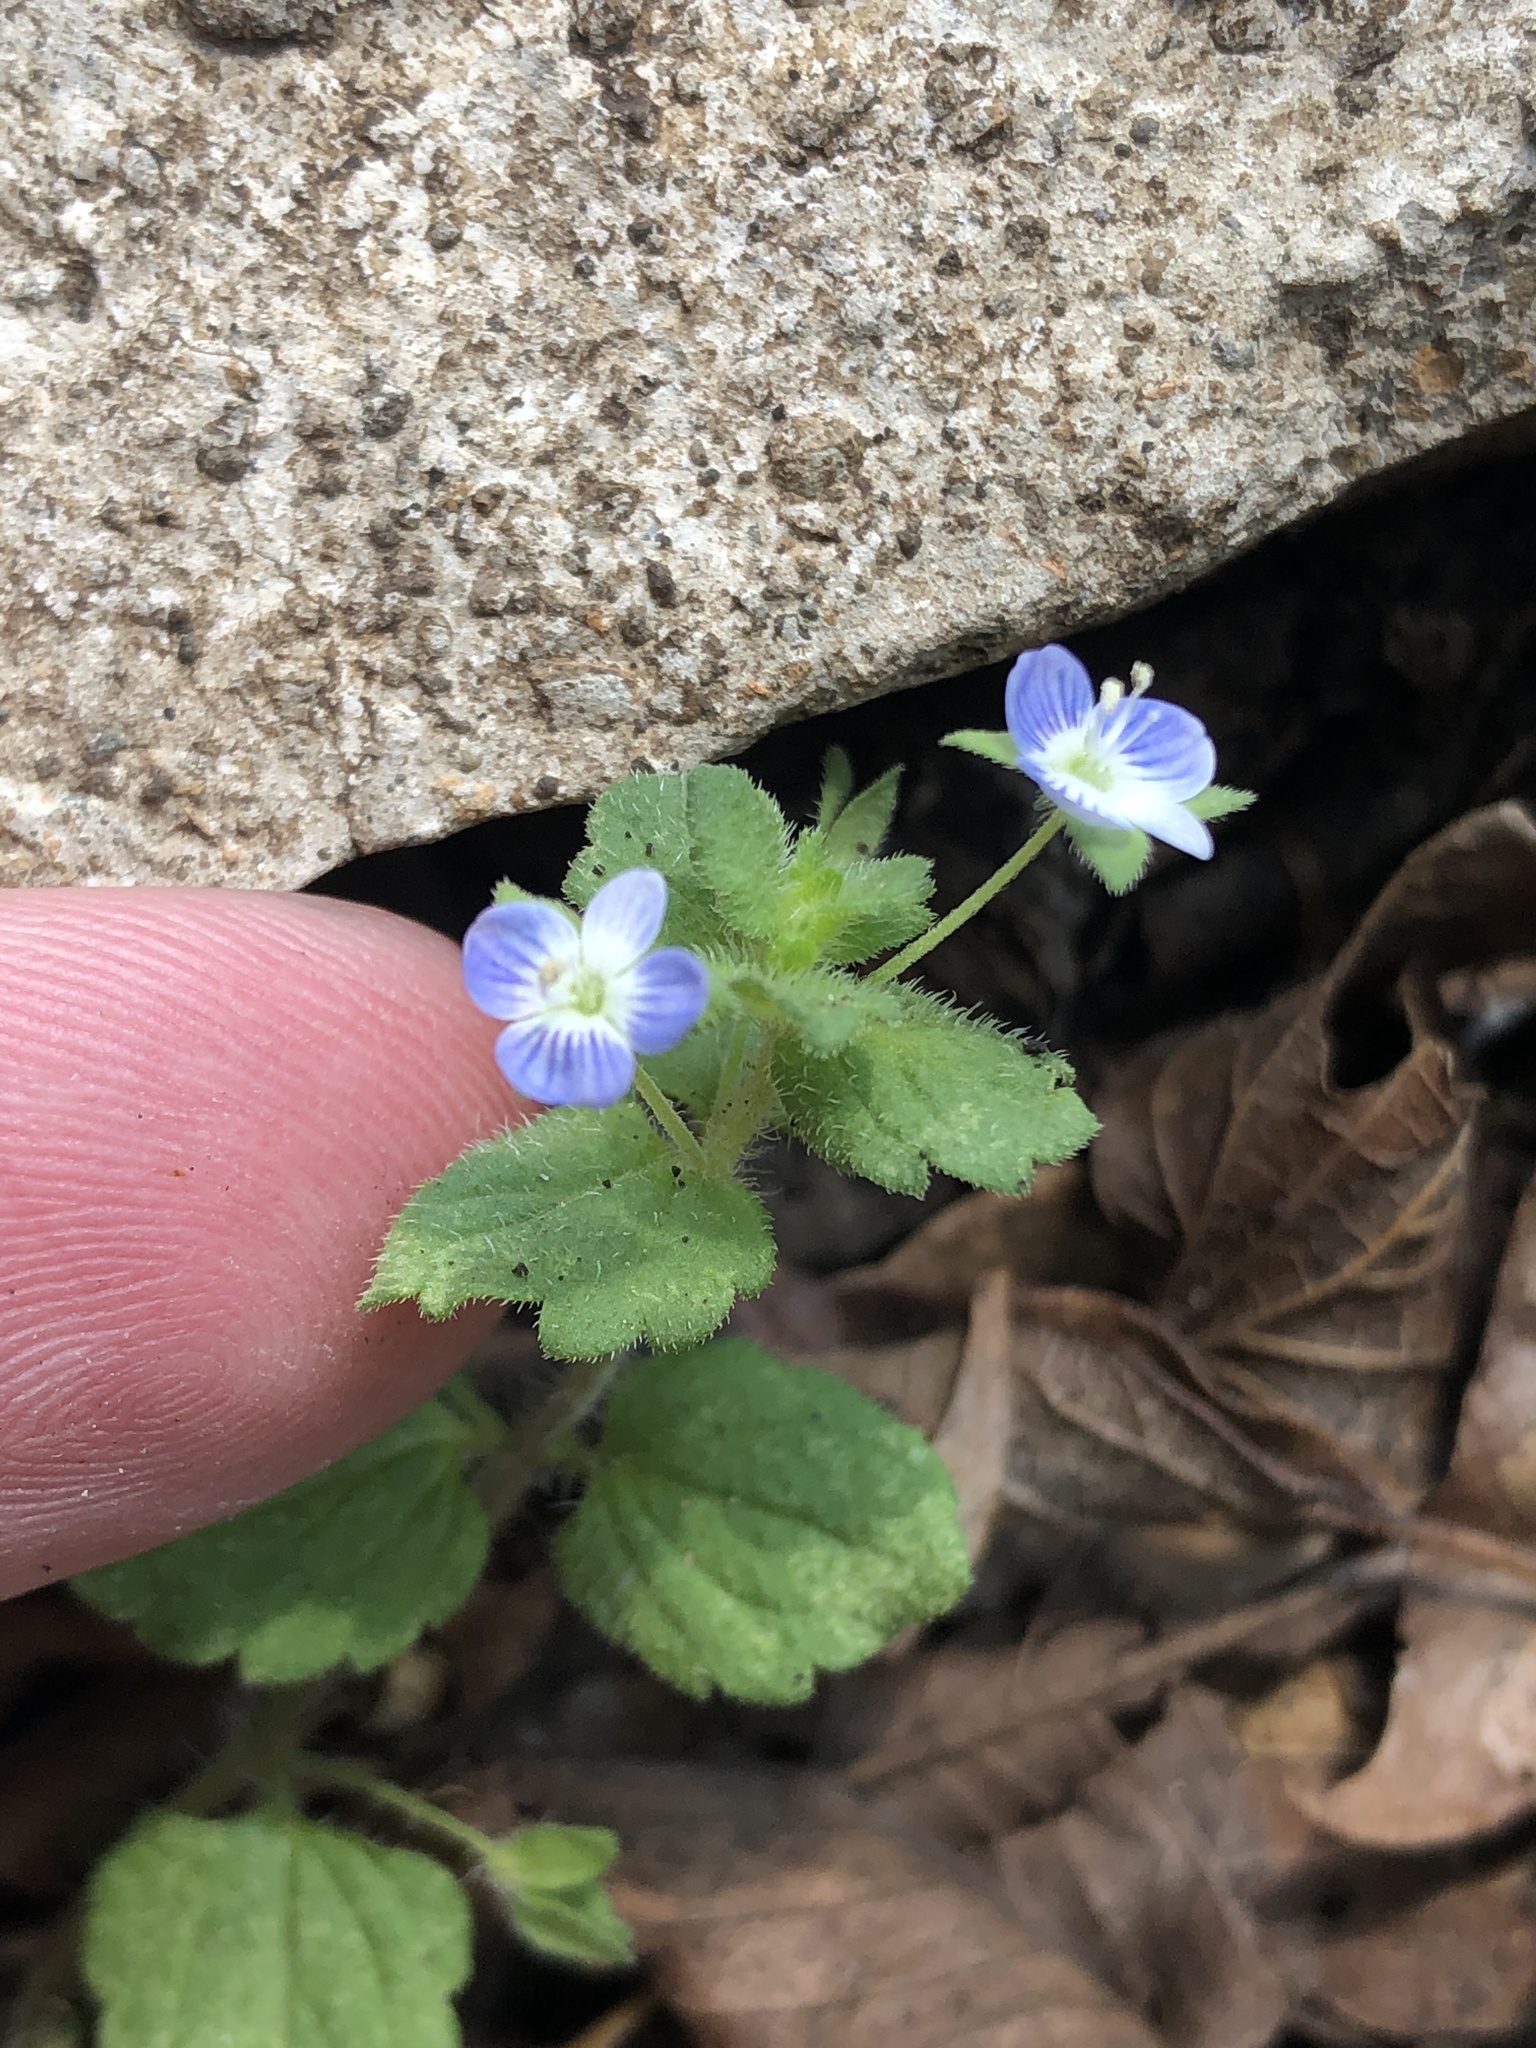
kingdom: Plantae
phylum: Tracheophyta
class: Magnoliopsida
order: Lamiales
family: Plantaginaceae
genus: Veronica
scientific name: Veronica persica
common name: Common field-speedwell
